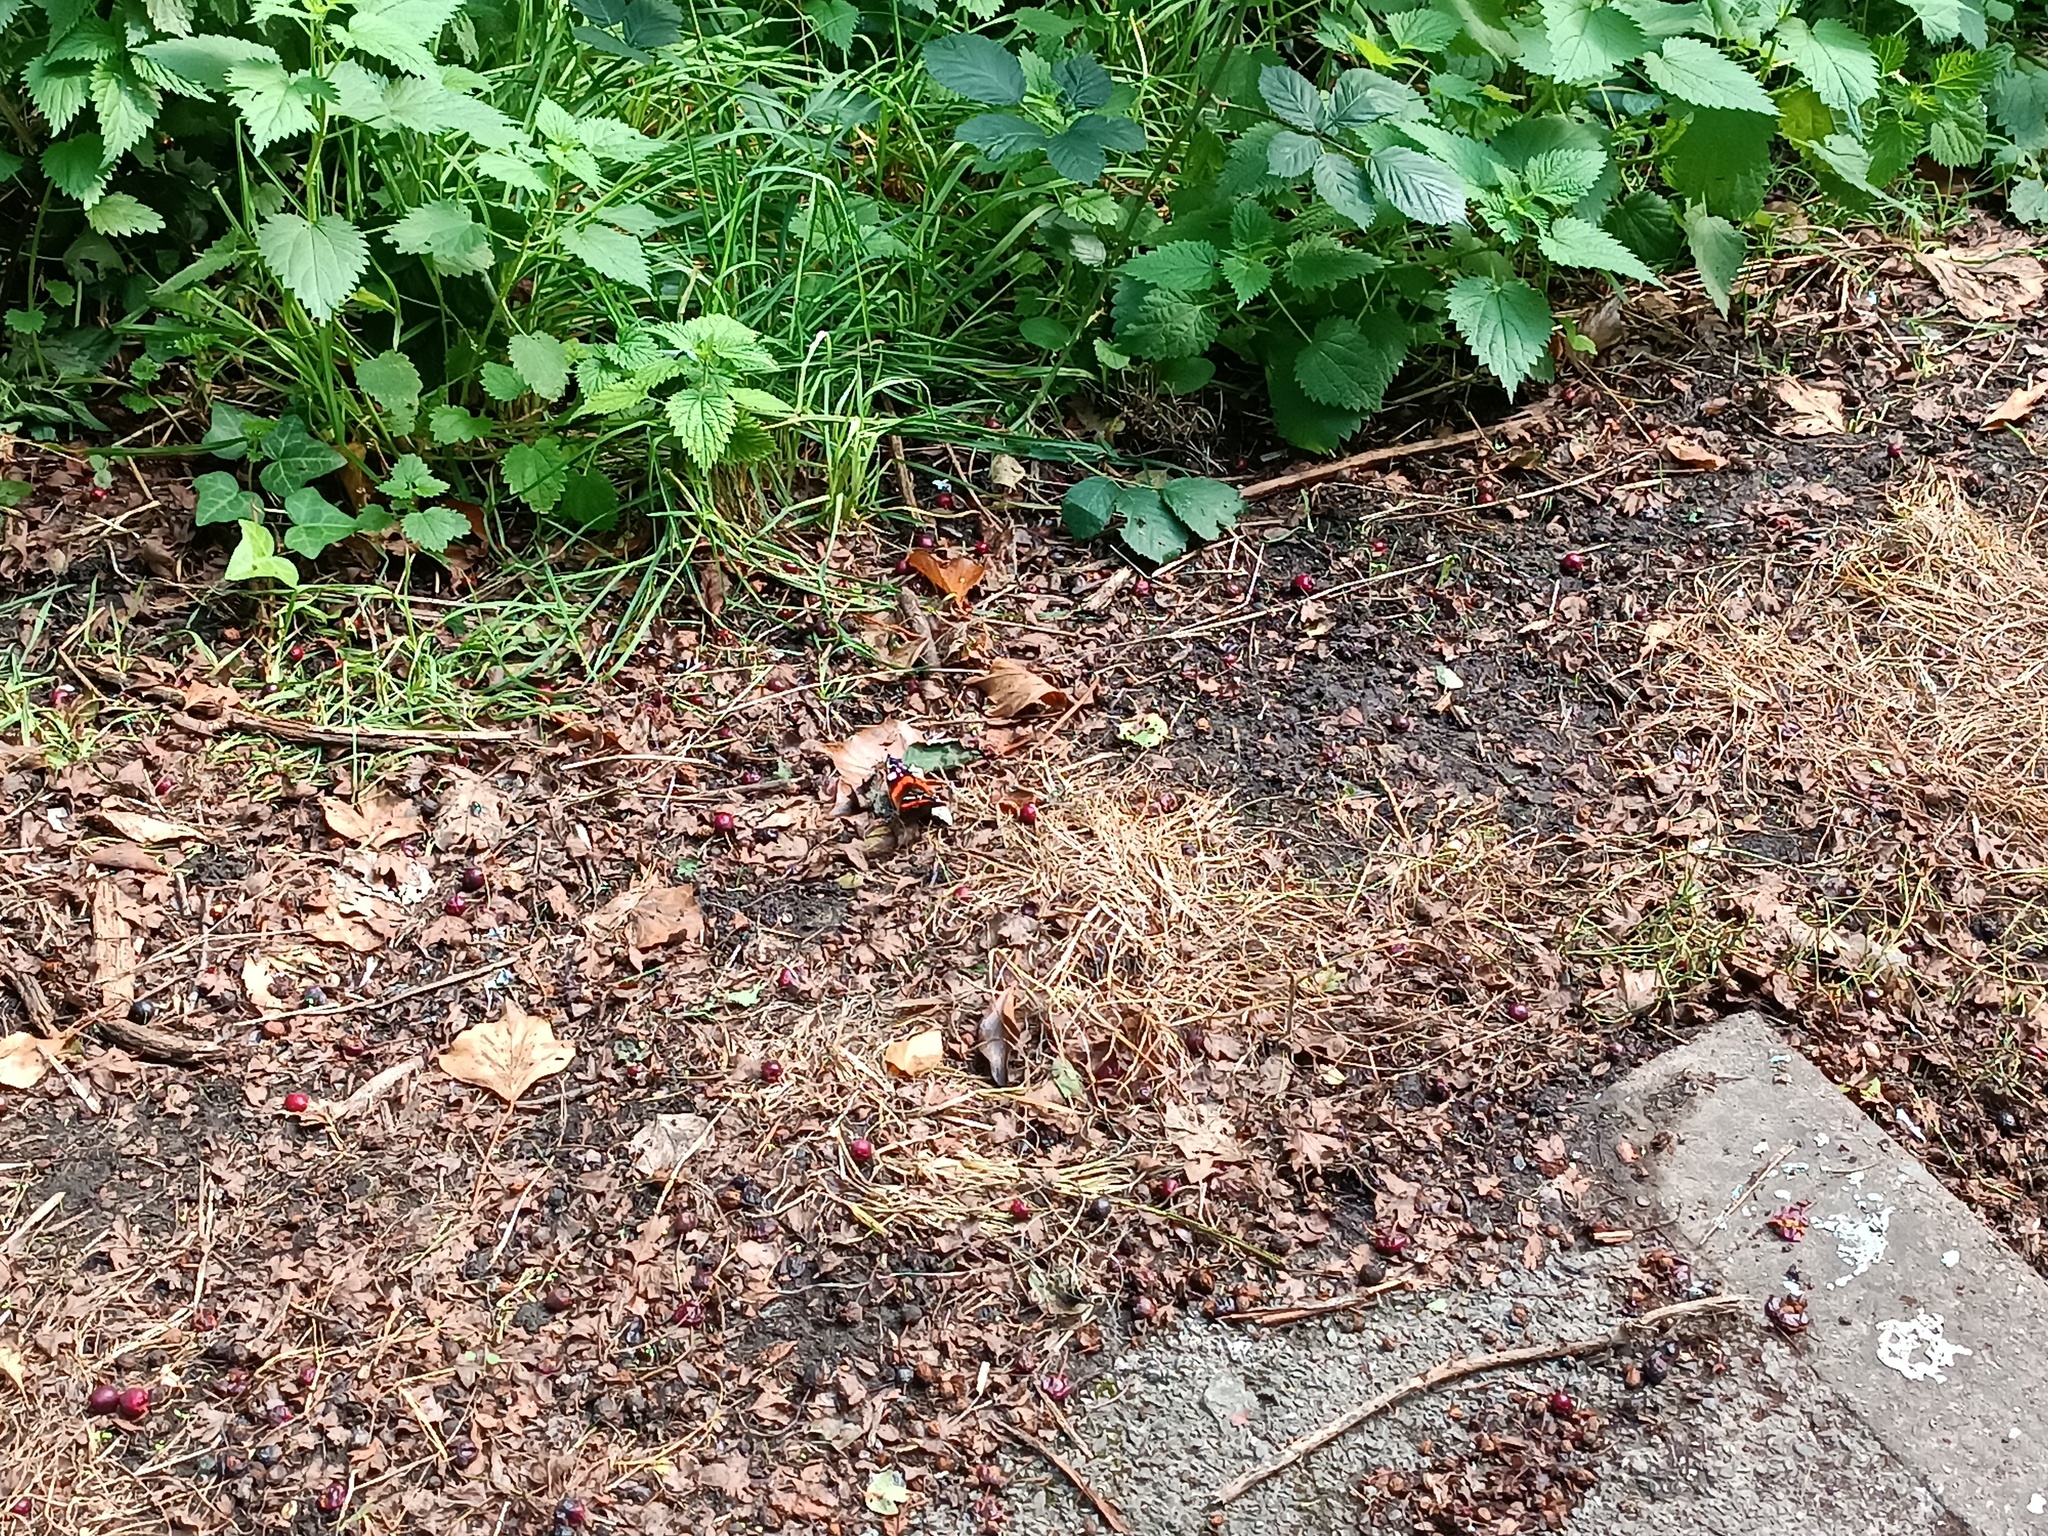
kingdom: Animalia
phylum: Arthropoda
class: Insecta
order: Lepidoptera
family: Nymphalidae
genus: Vanessa
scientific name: Vanessa atalanta
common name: Red admiral
